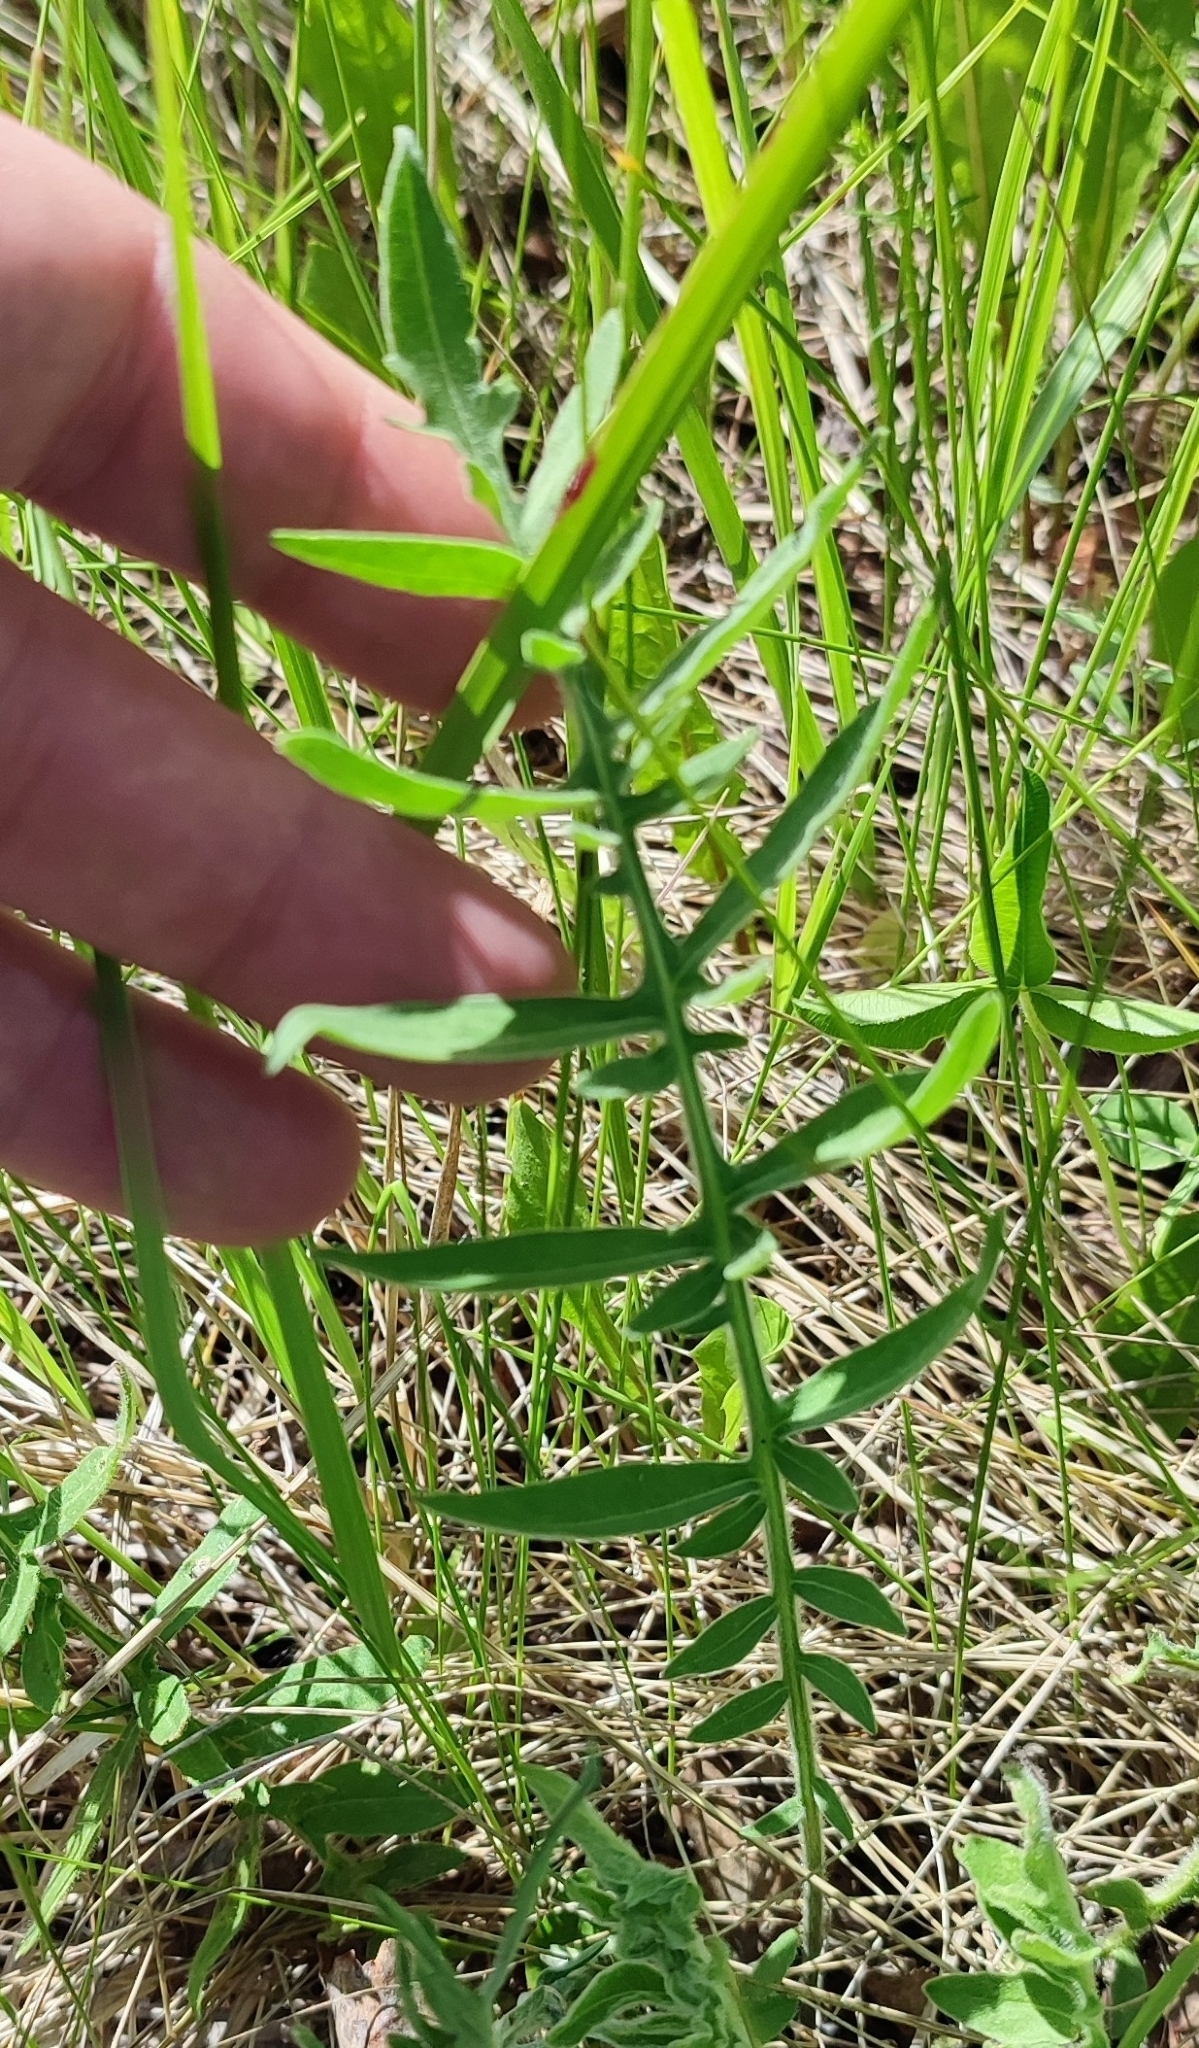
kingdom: Plantae
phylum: Tracheophyta
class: Magnoliopsida
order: Asterales
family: Asteraceae
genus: Centaurea
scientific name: Centaurea scabiosa
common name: Greater knapweed
